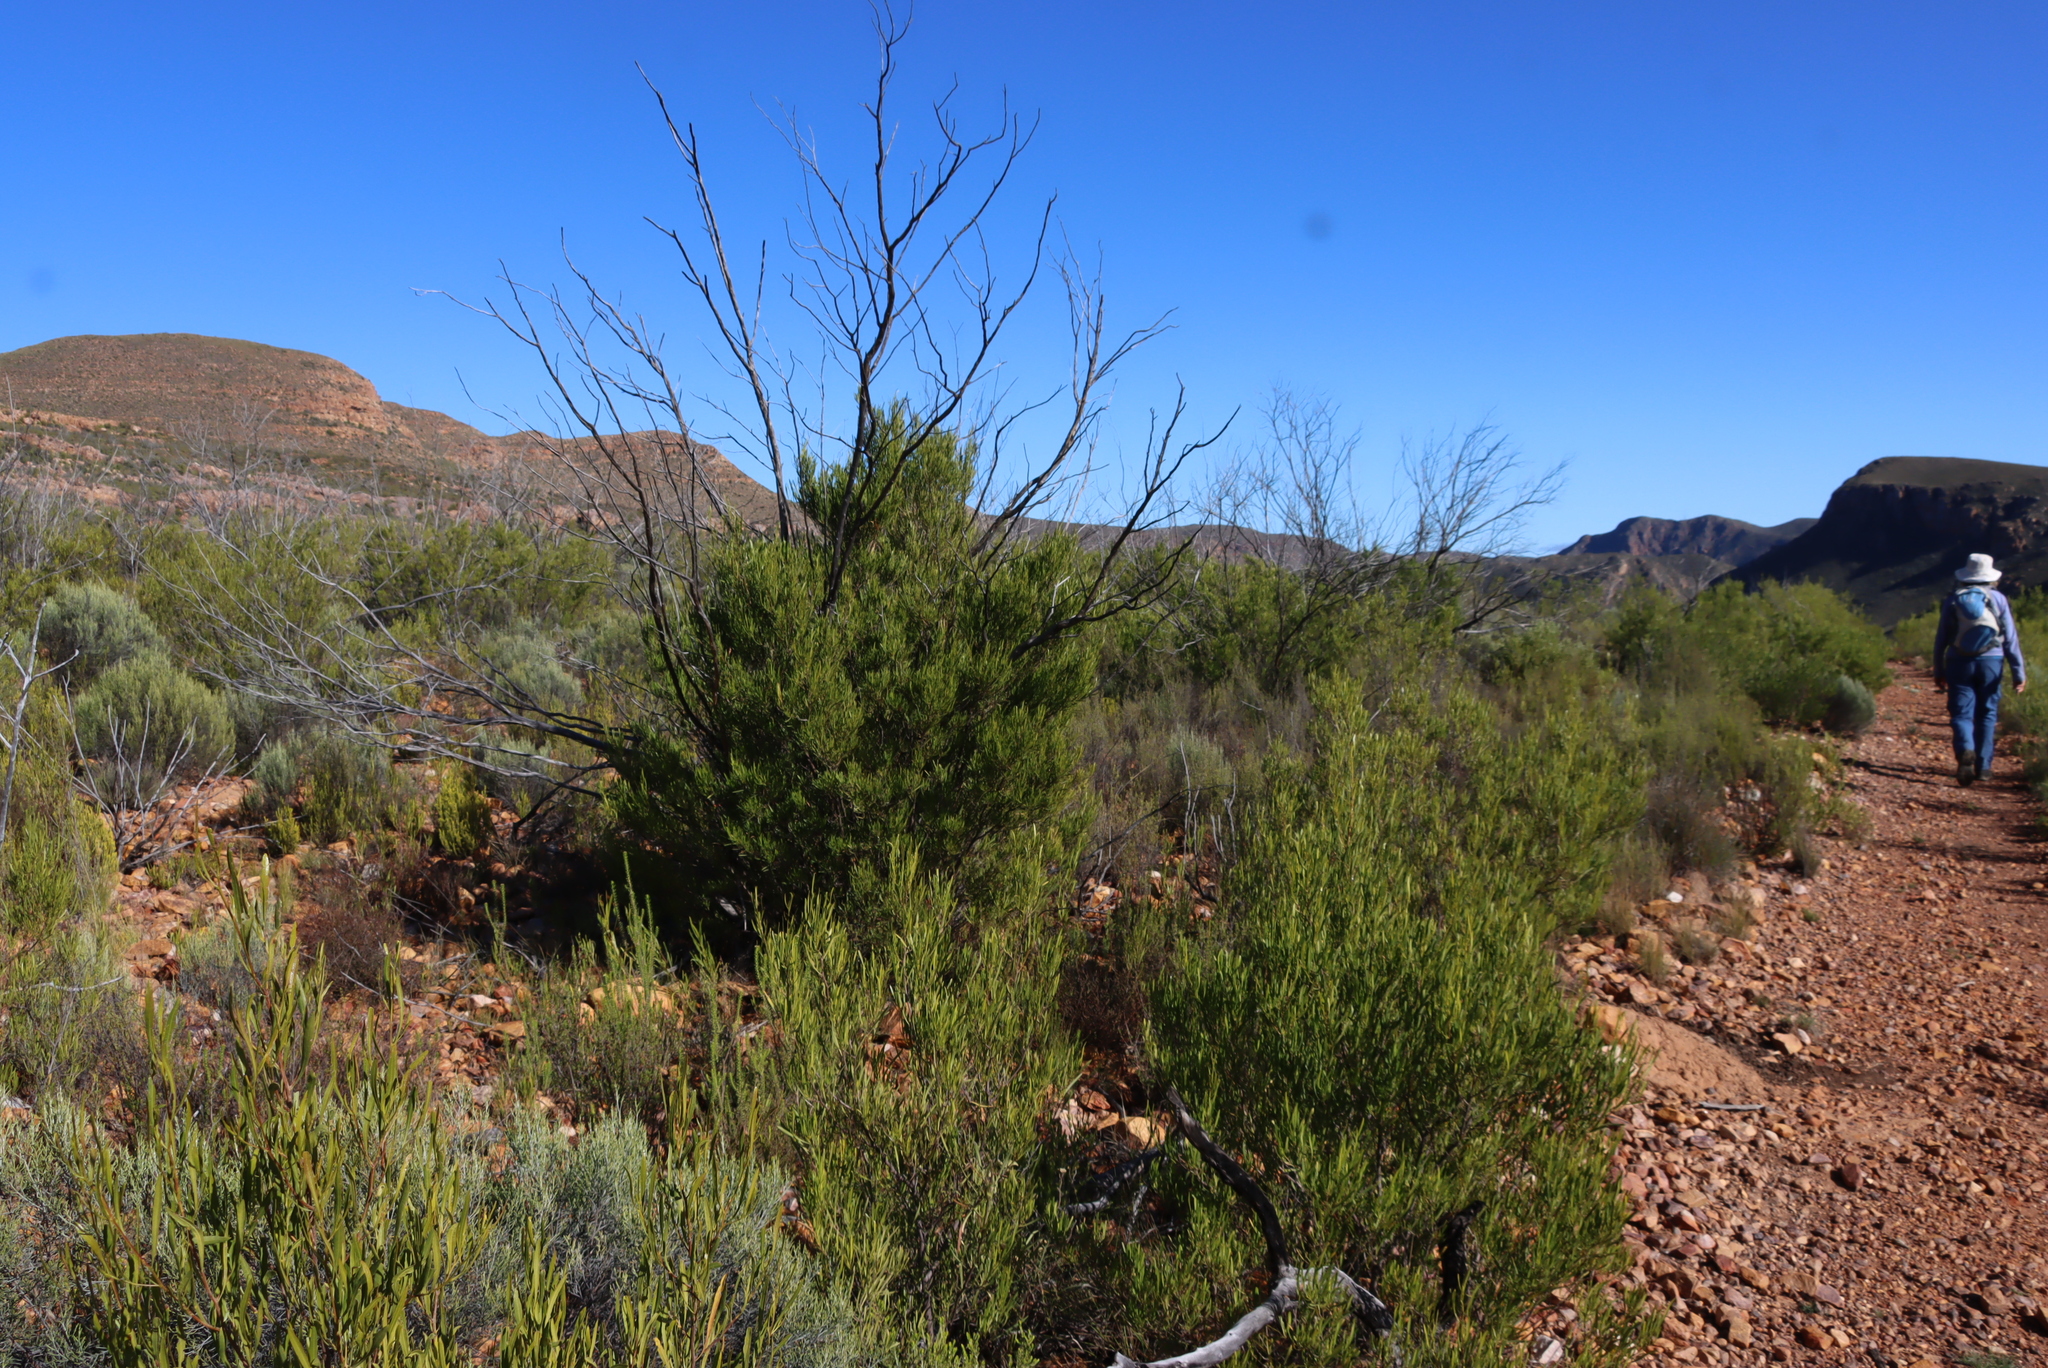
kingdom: Plantae
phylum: Tracheophyta
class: Magnoliopsida
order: Sapindales
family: Sapindaceae
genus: Dodonaea
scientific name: Dodonaea viscosa
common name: Hopbush
